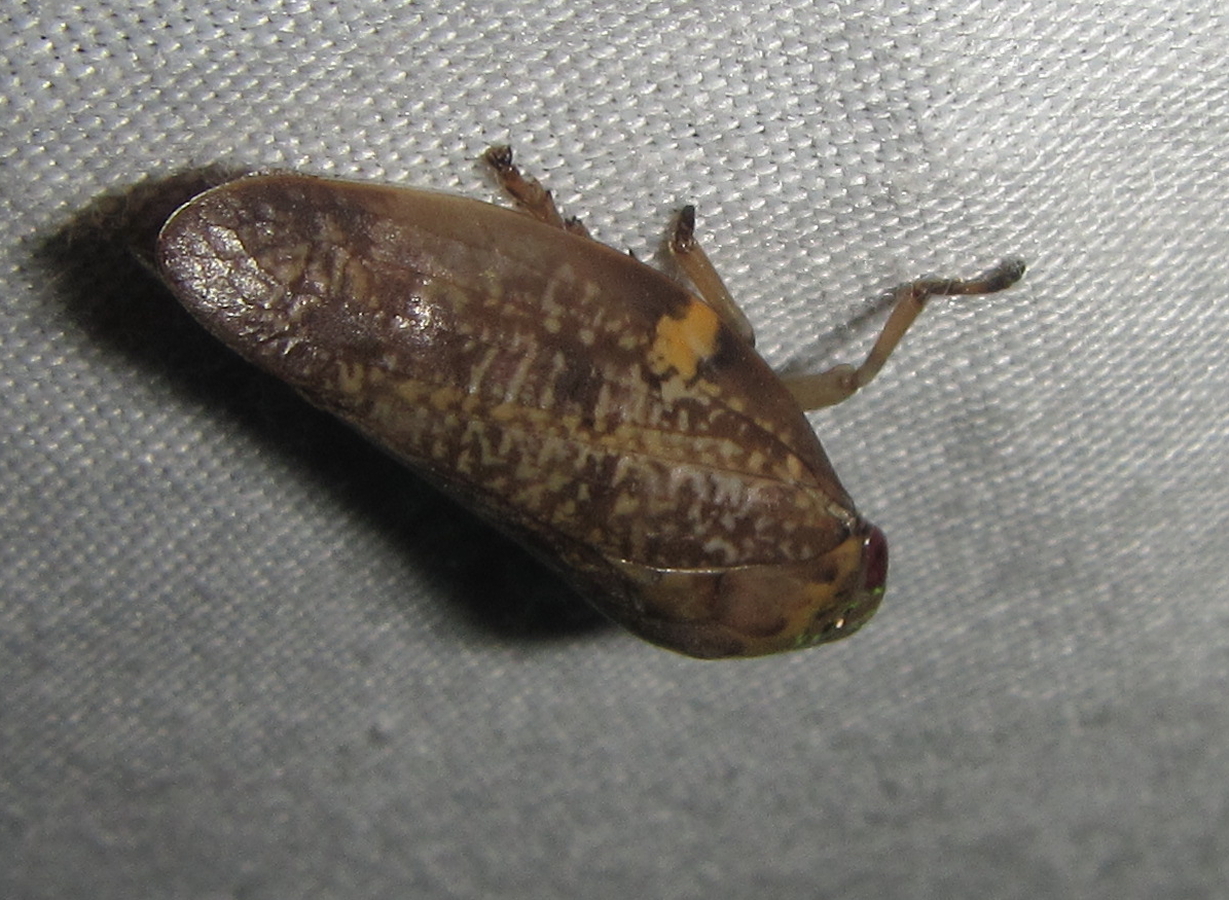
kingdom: Animalia
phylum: Arthropoda
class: Insecta
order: Hemiptera
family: Aphrophoridae
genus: Ptyelus
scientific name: Ptyelus grossus
